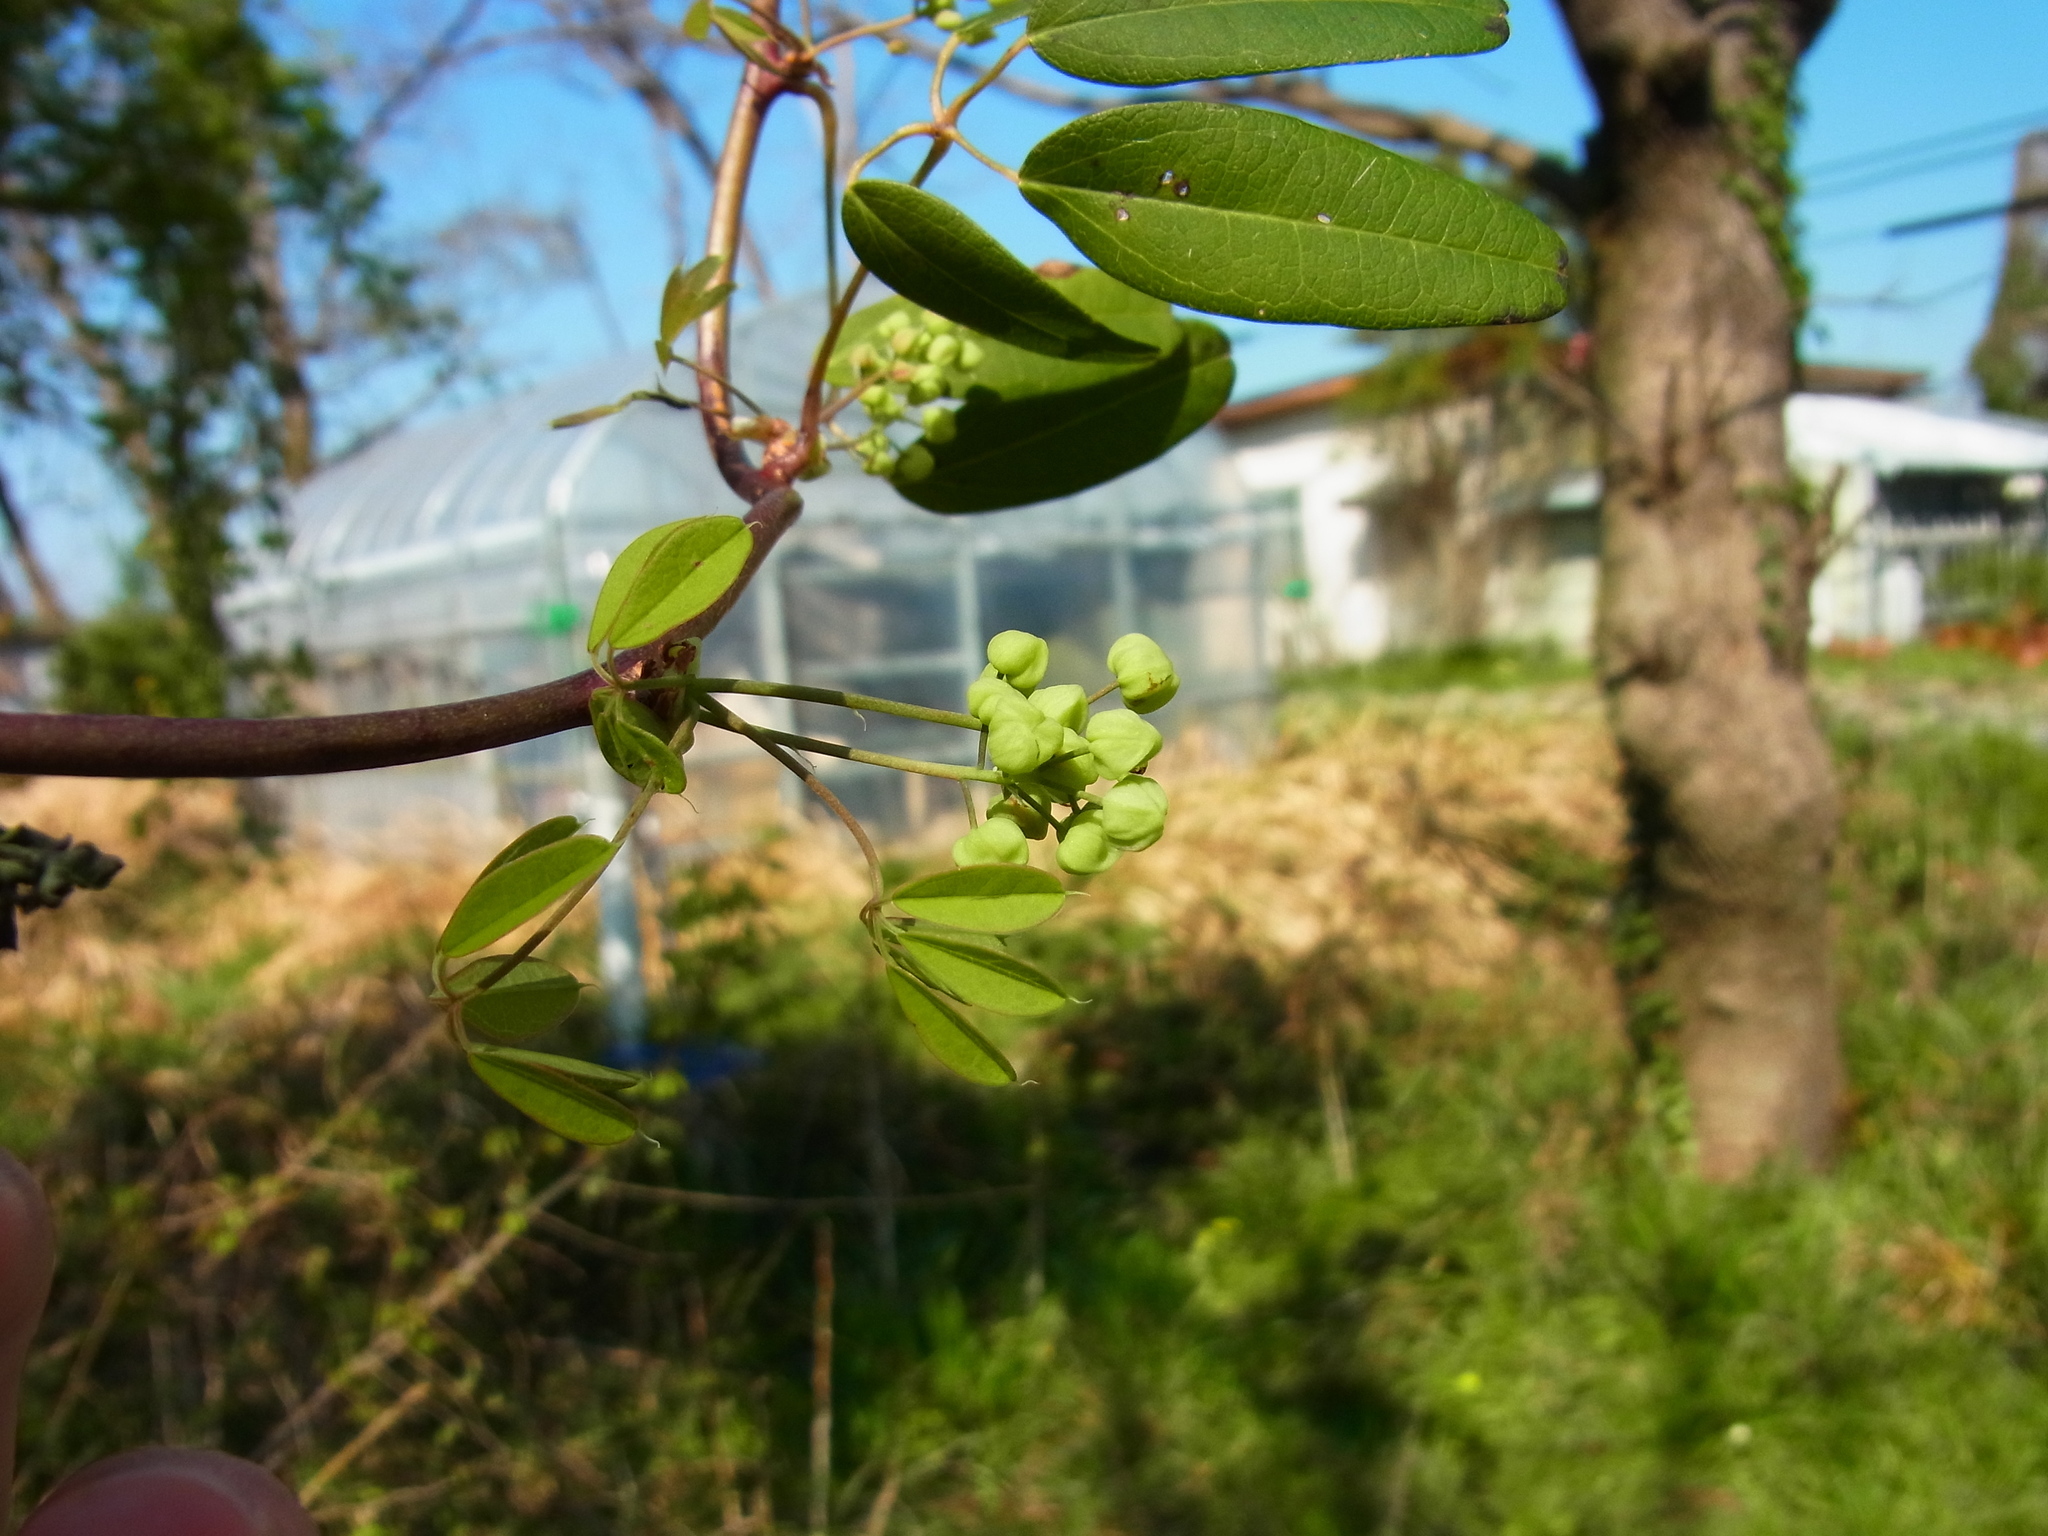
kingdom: Plantae
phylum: Tracheophyta
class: Magnoliopsida
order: Ranunculales
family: Lardizabalaceae
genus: Akebia
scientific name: Akebia quinata
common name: Five-leaf akebia
